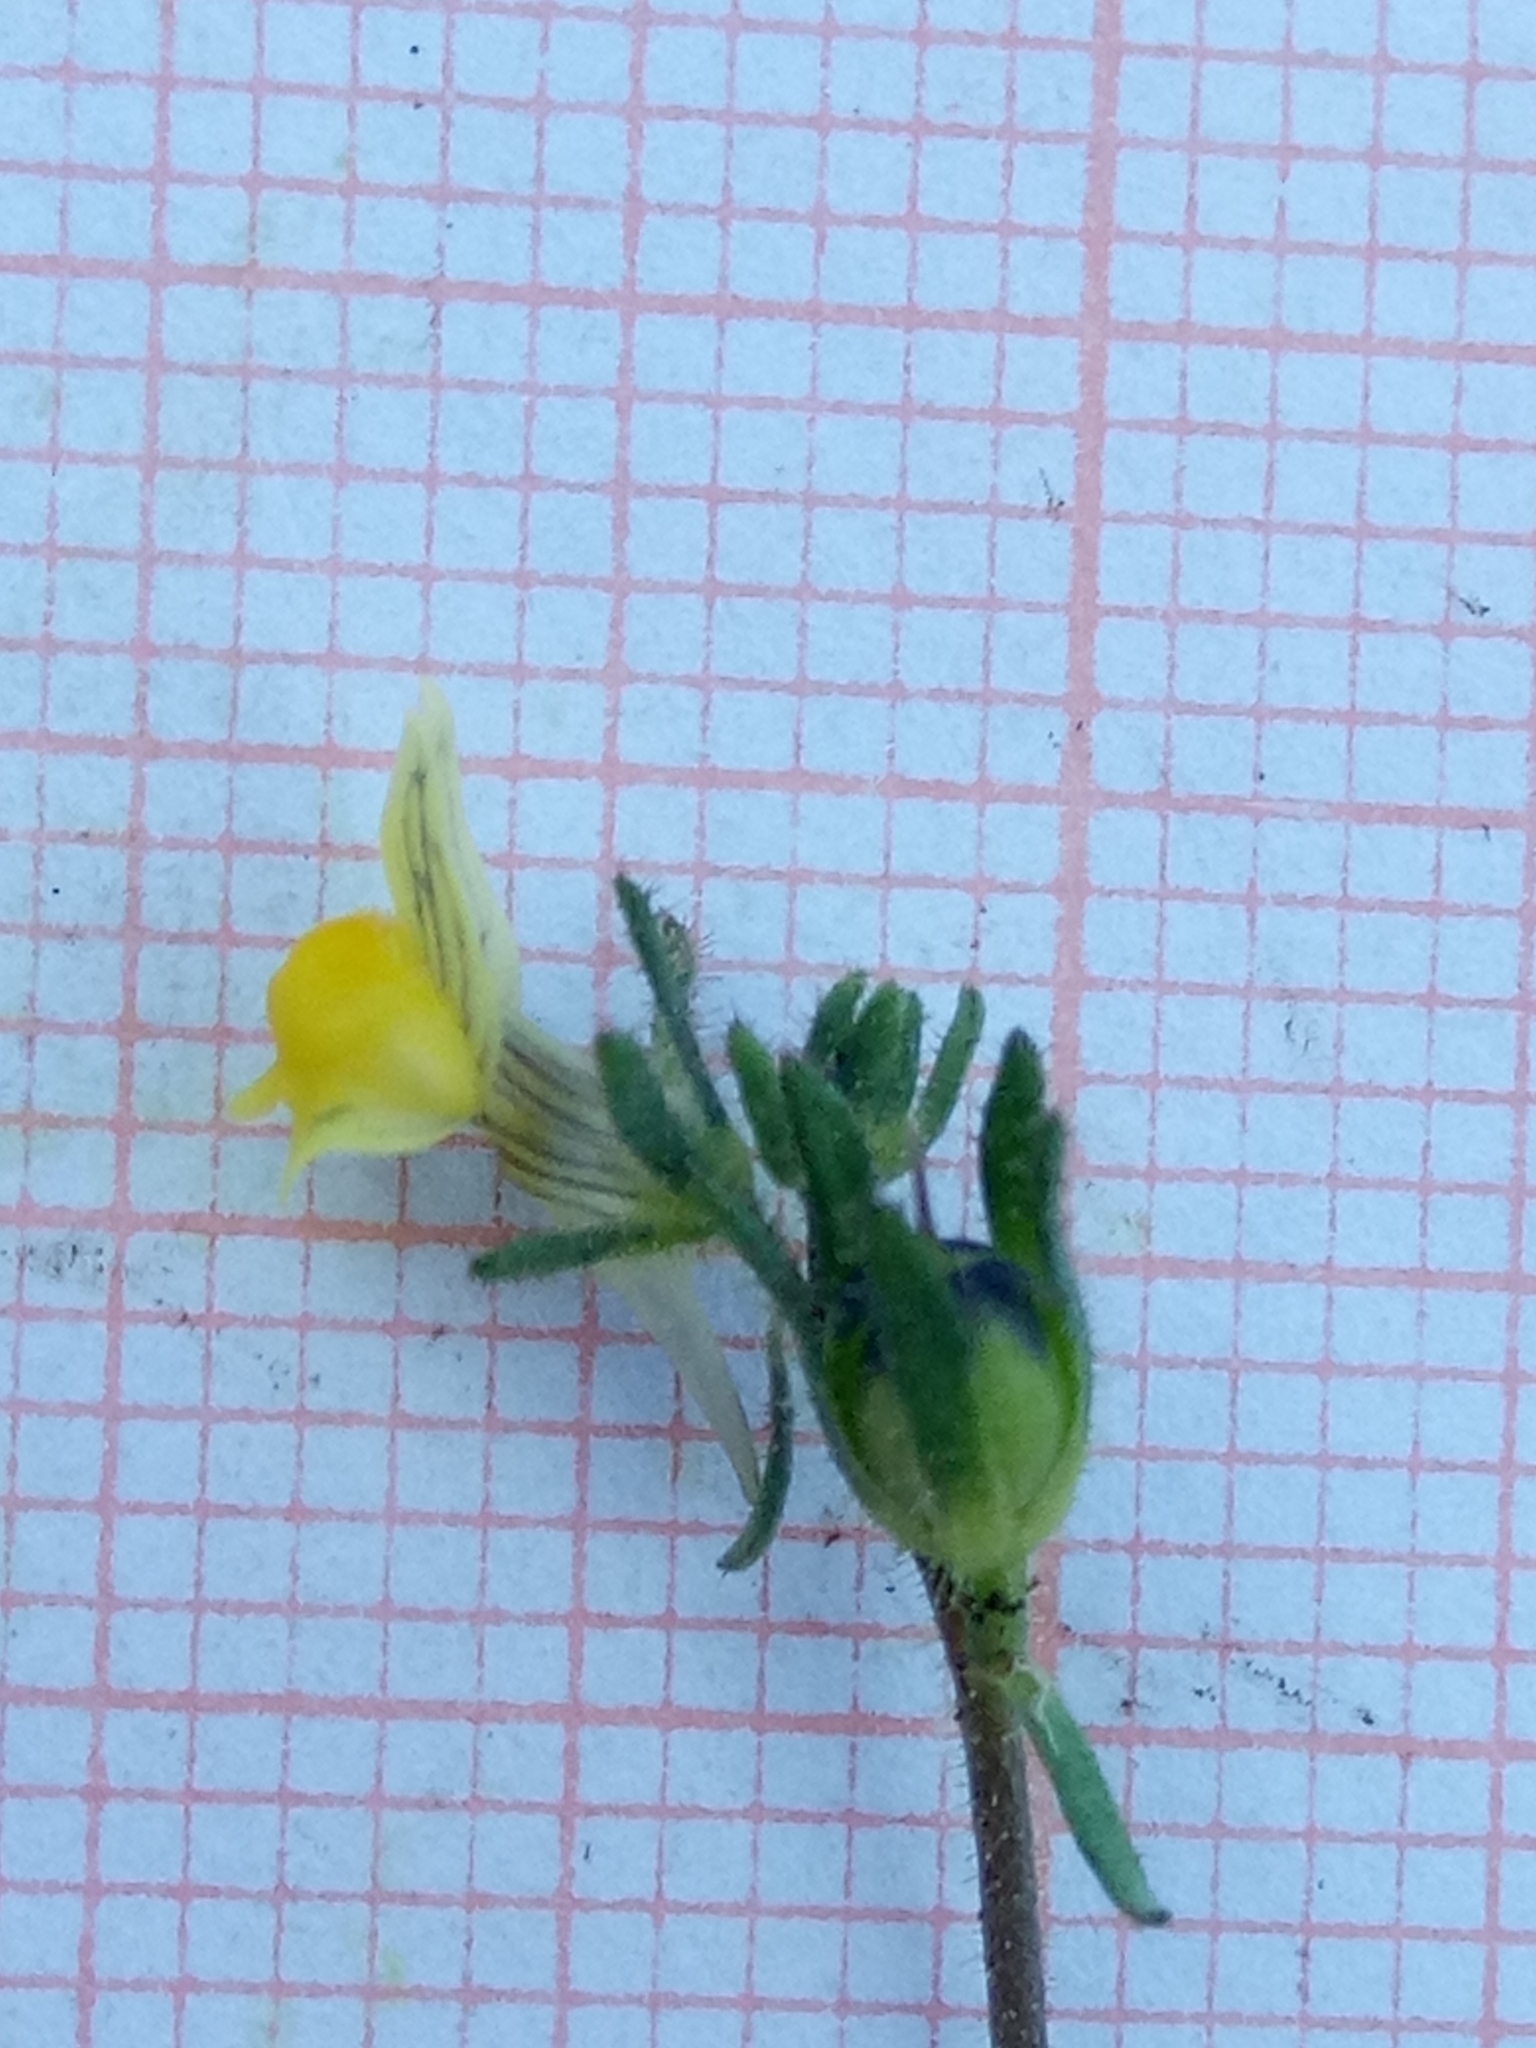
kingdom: Plantae
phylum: Tracheophyta
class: Magnoliopsida
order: Lamiales
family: Plantaginaceae
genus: Linaria
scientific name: Linaria simplex
